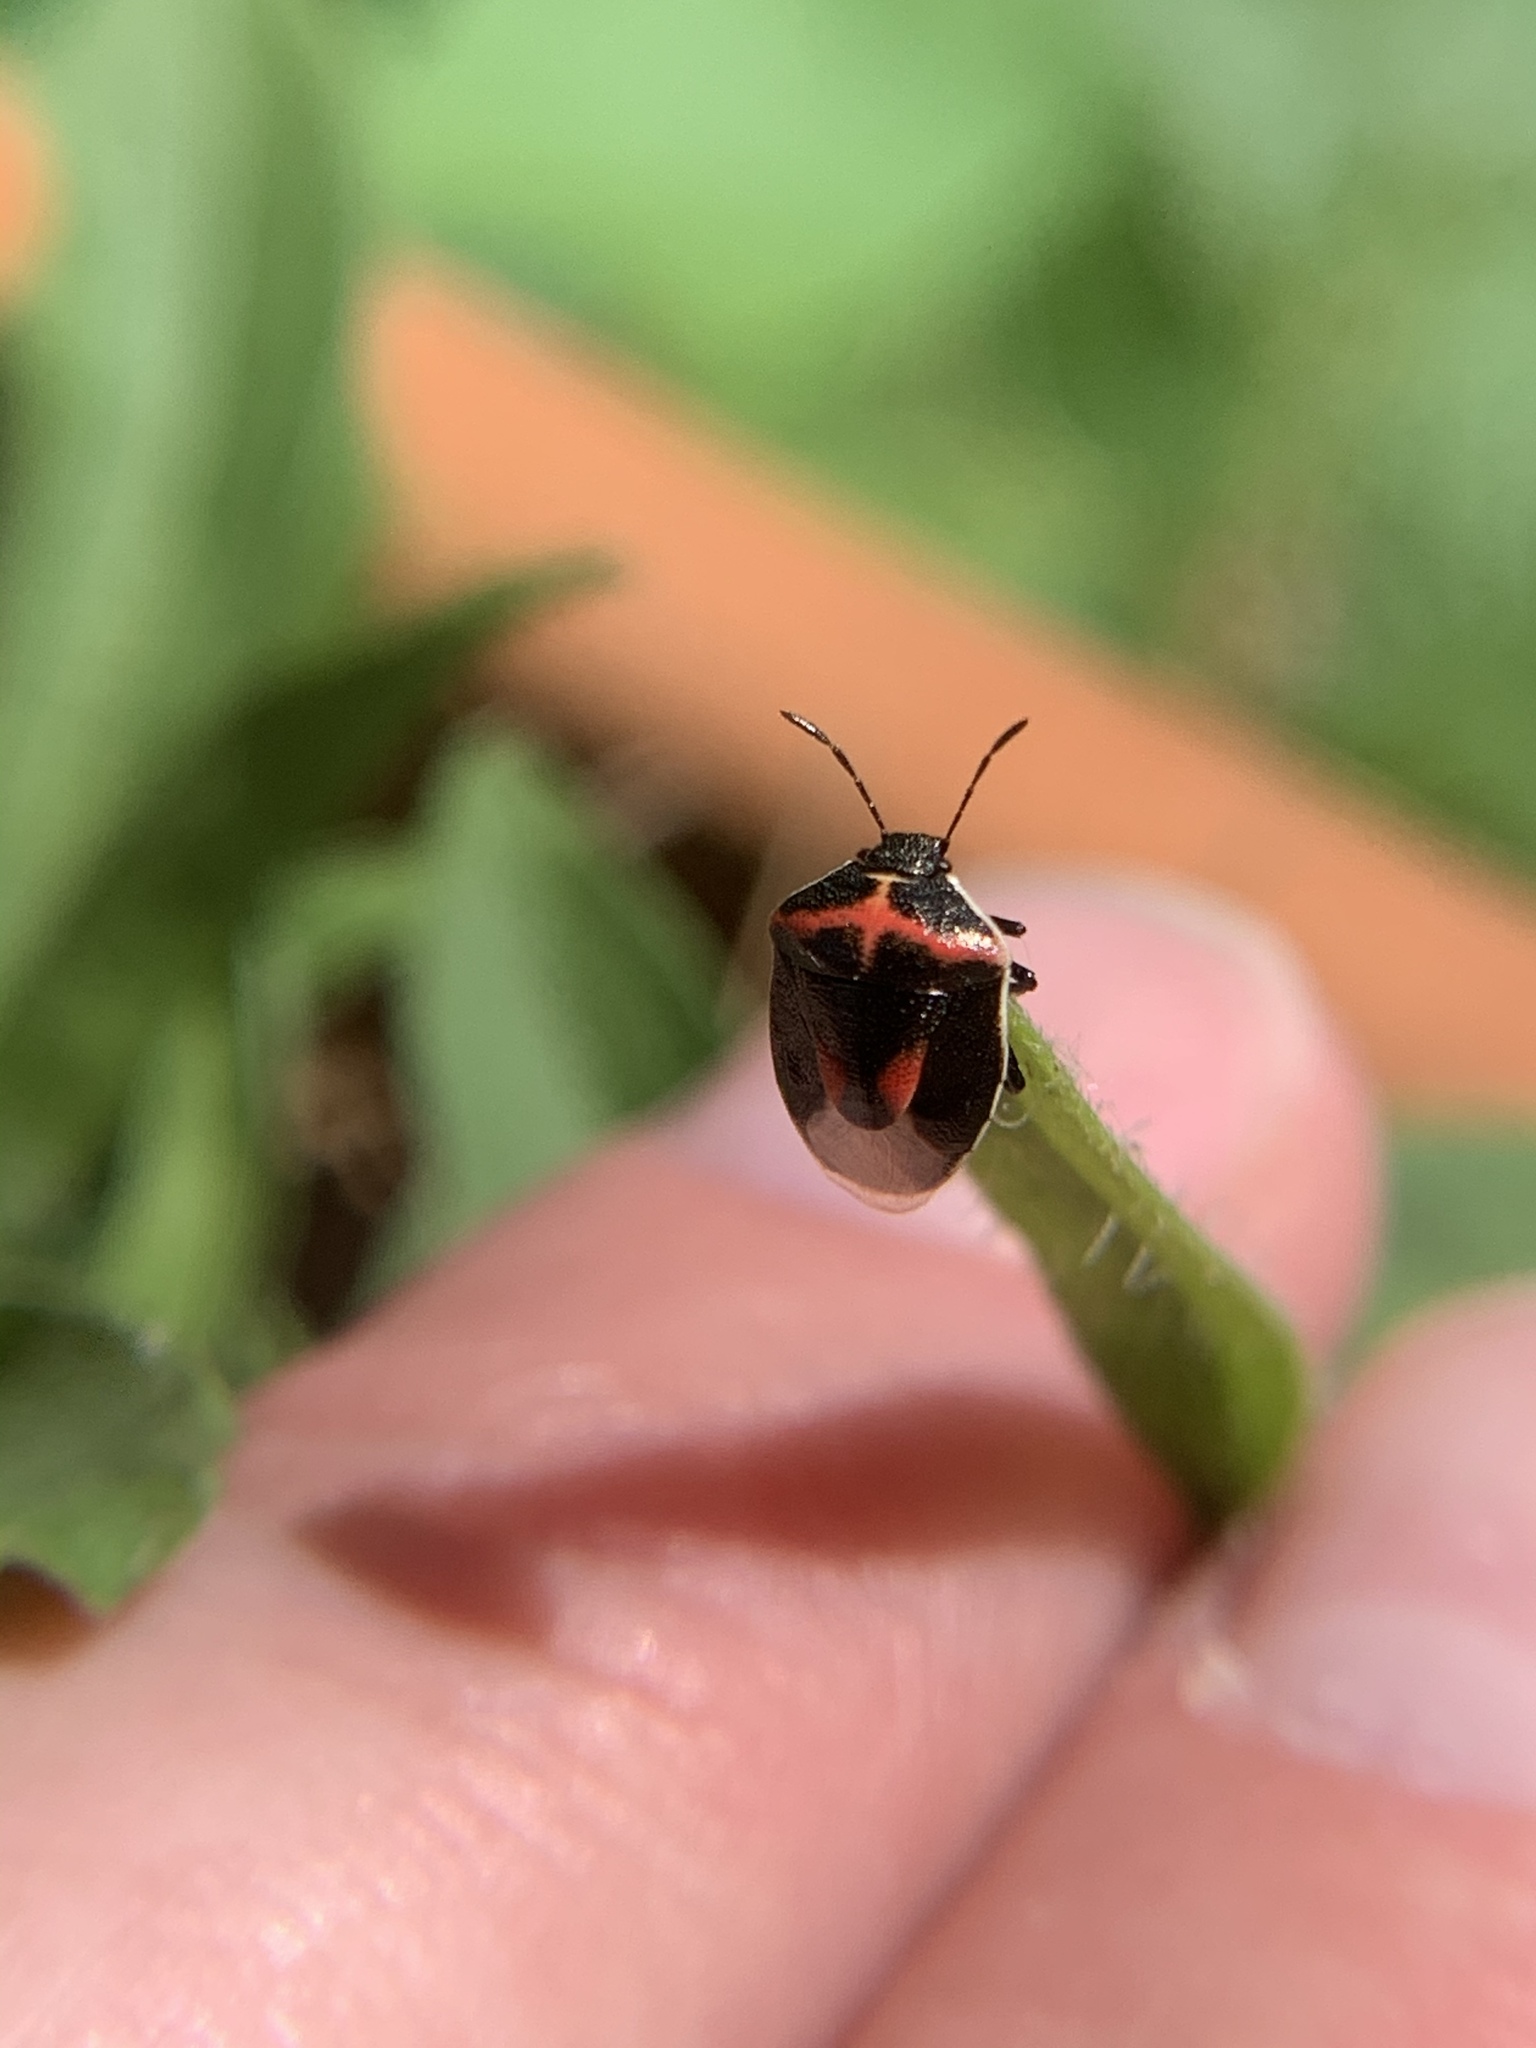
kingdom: Animalia
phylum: Arthropoda
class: Insecta
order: Hemiptera
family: Pentatomidae
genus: Cosmopepla
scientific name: Cosmopepla lintneriana
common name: Twice-stabbed stink bug
